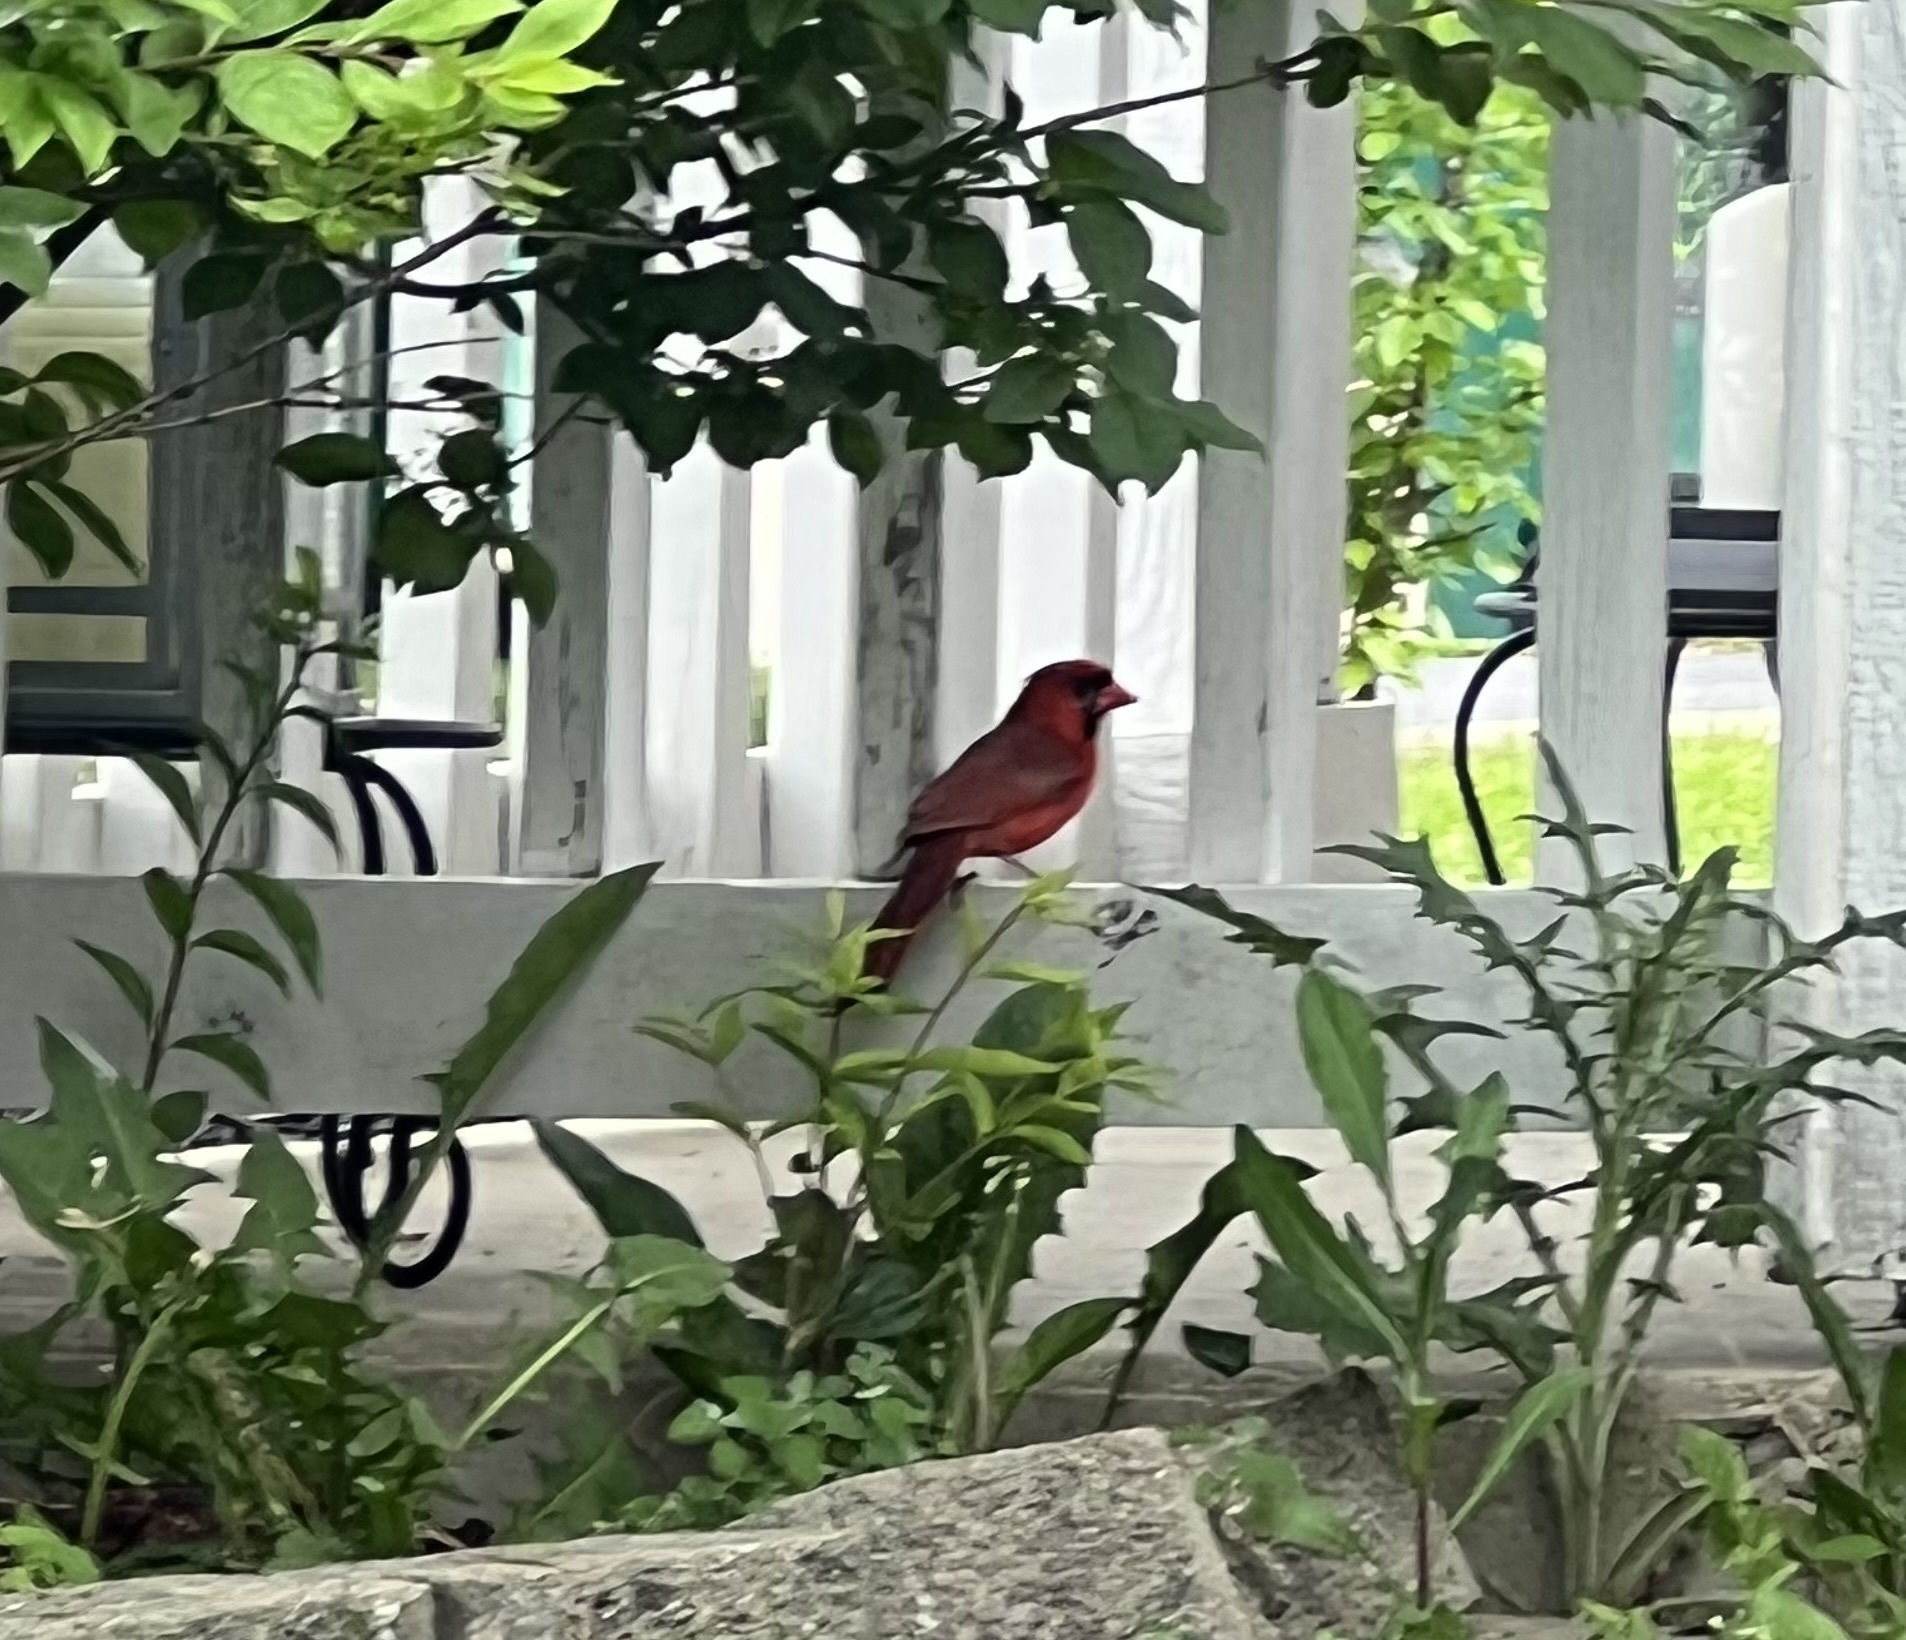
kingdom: Animalia
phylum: Chordata
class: Aves
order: Passeriformes
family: Cardinalidae
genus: Cardinalis
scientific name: Cardinalis cardinalis
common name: Northern cardinal
